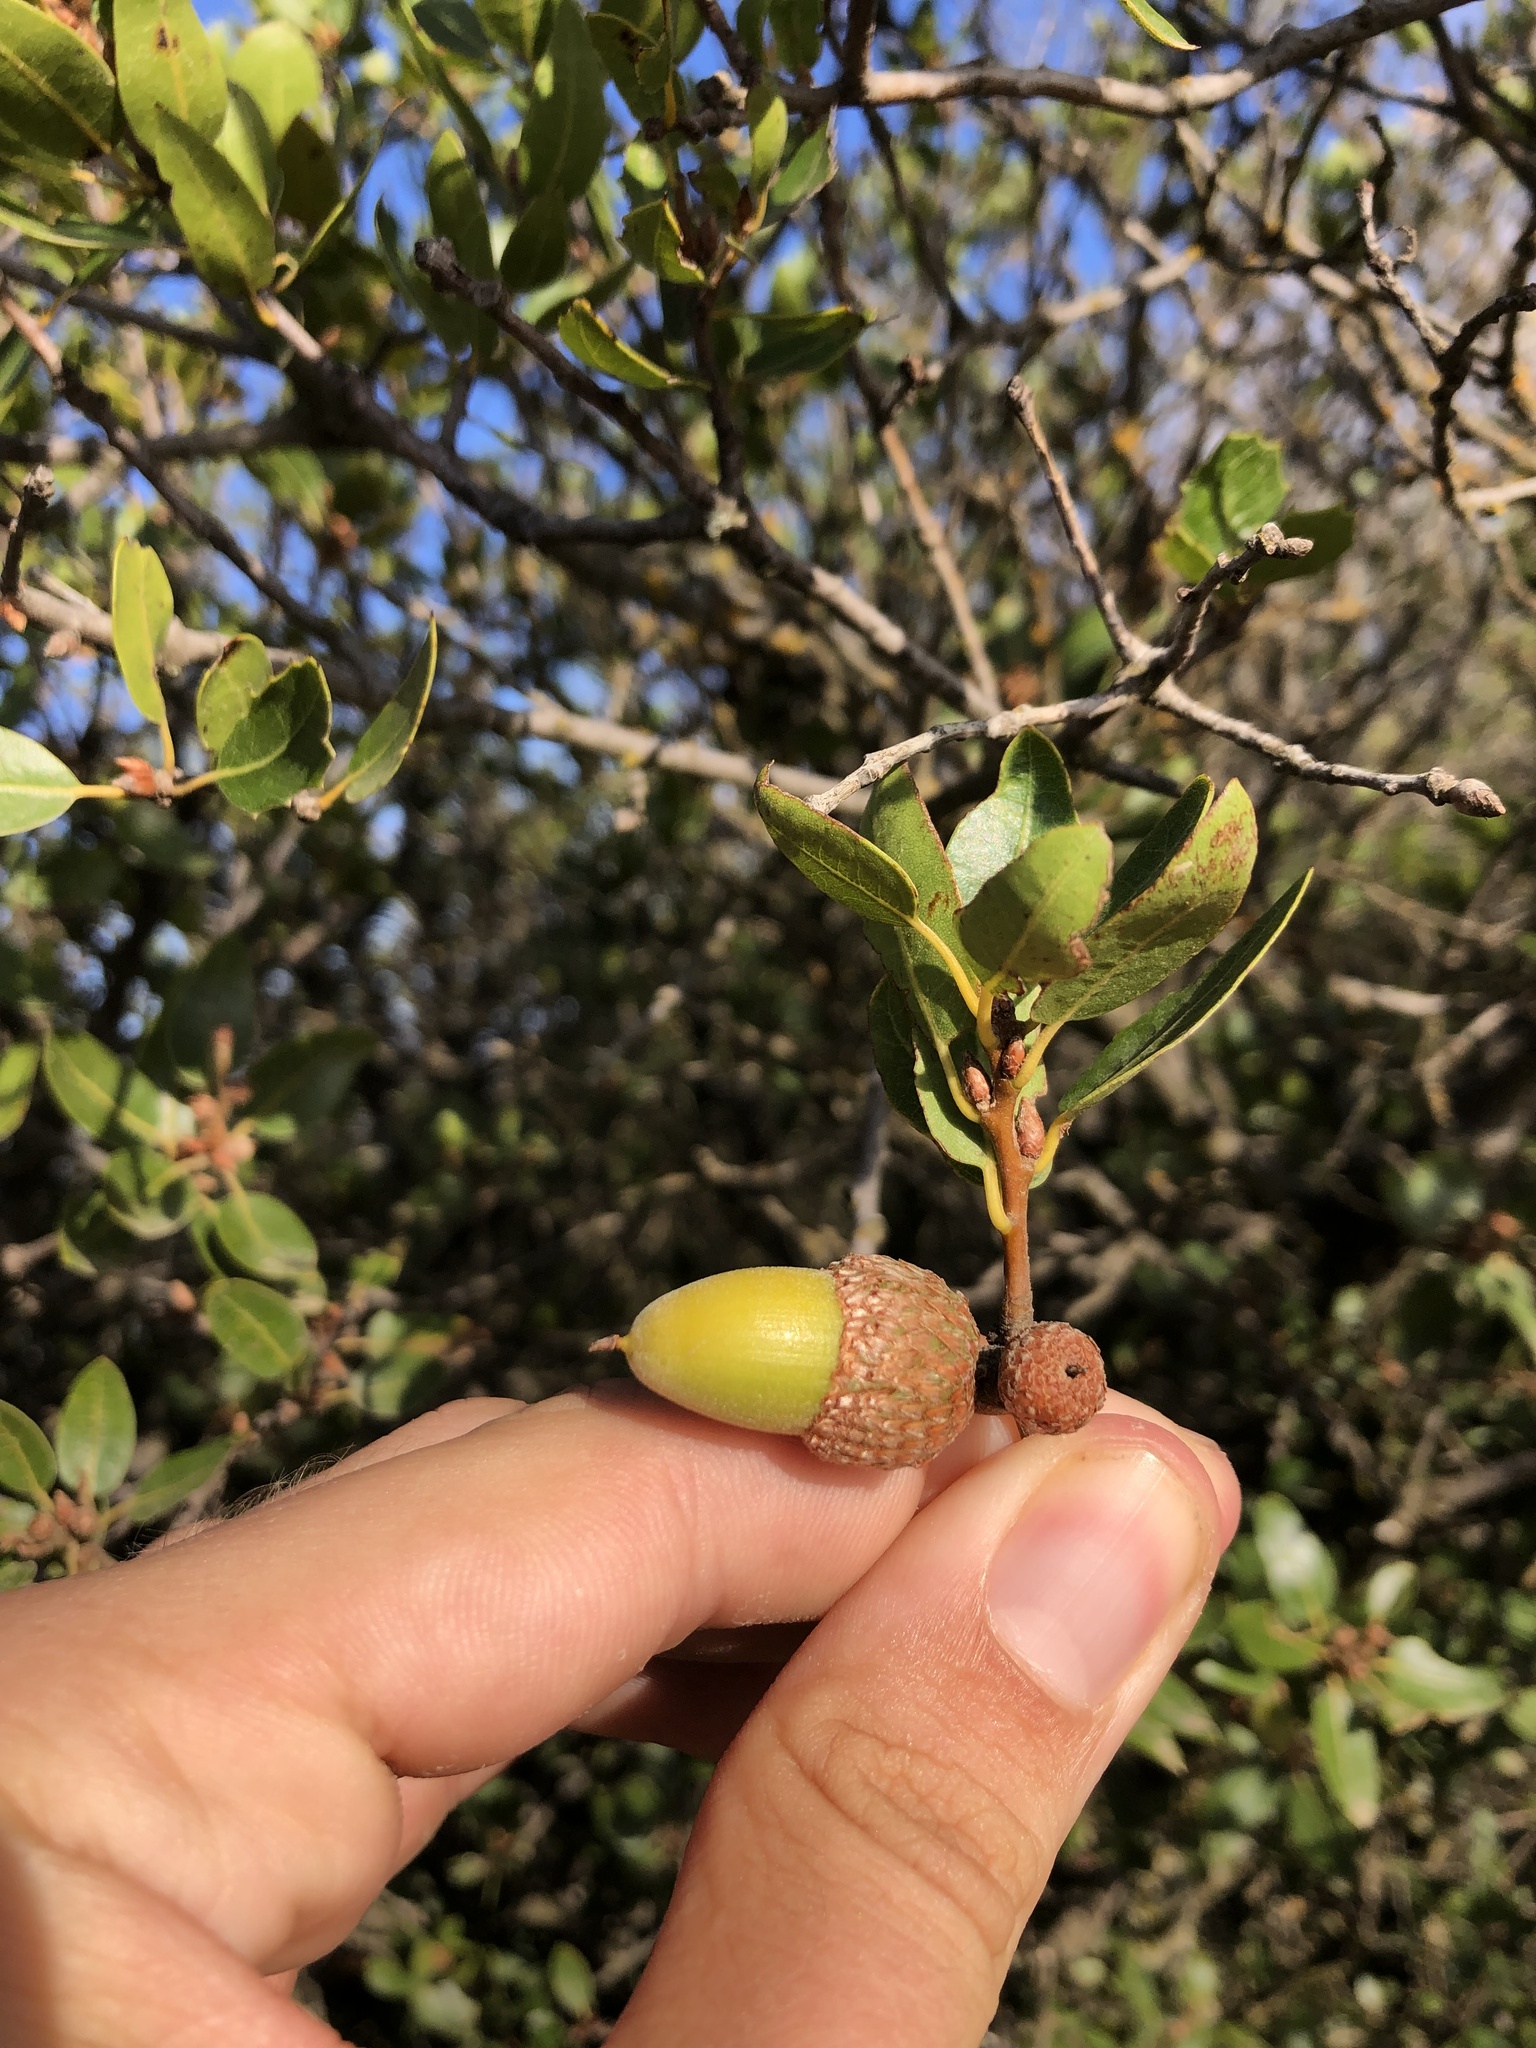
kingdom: Plantae
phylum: Tracheophyta
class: Magnoliopsida
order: Fagales
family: Fagaceae
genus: Quercus
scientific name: Quercus parvula
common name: Santa cruz island oak
